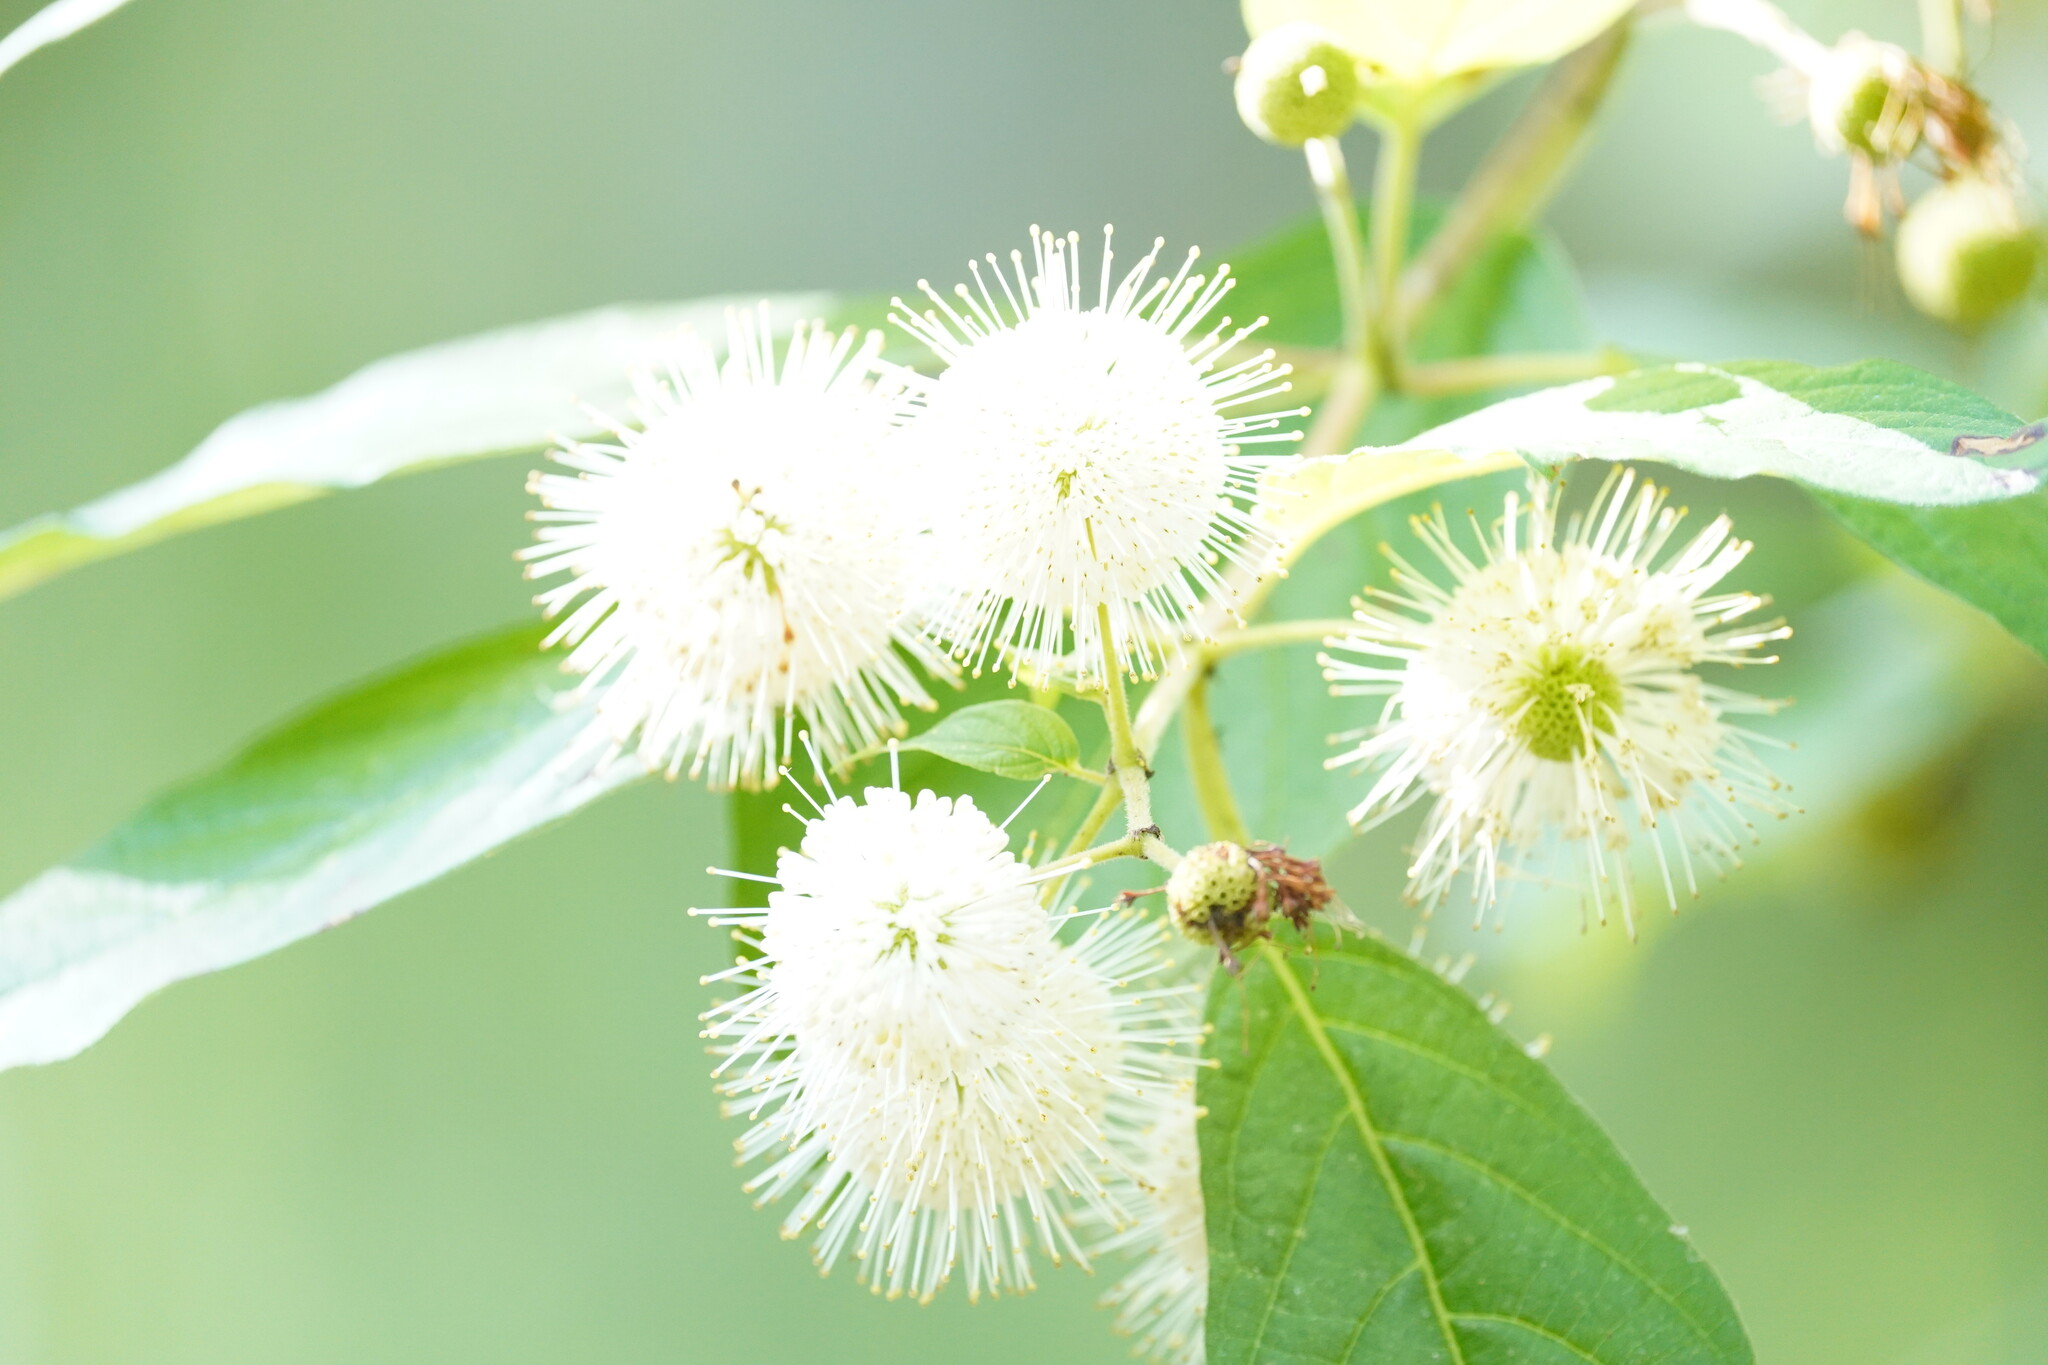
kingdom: Plantae
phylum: Tracheophyta
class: Magnoliopsida
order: Gentianales
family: Rubiaceae
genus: Cephalanthus
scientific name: Cephalanthus occidentalis
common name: Button-willow
